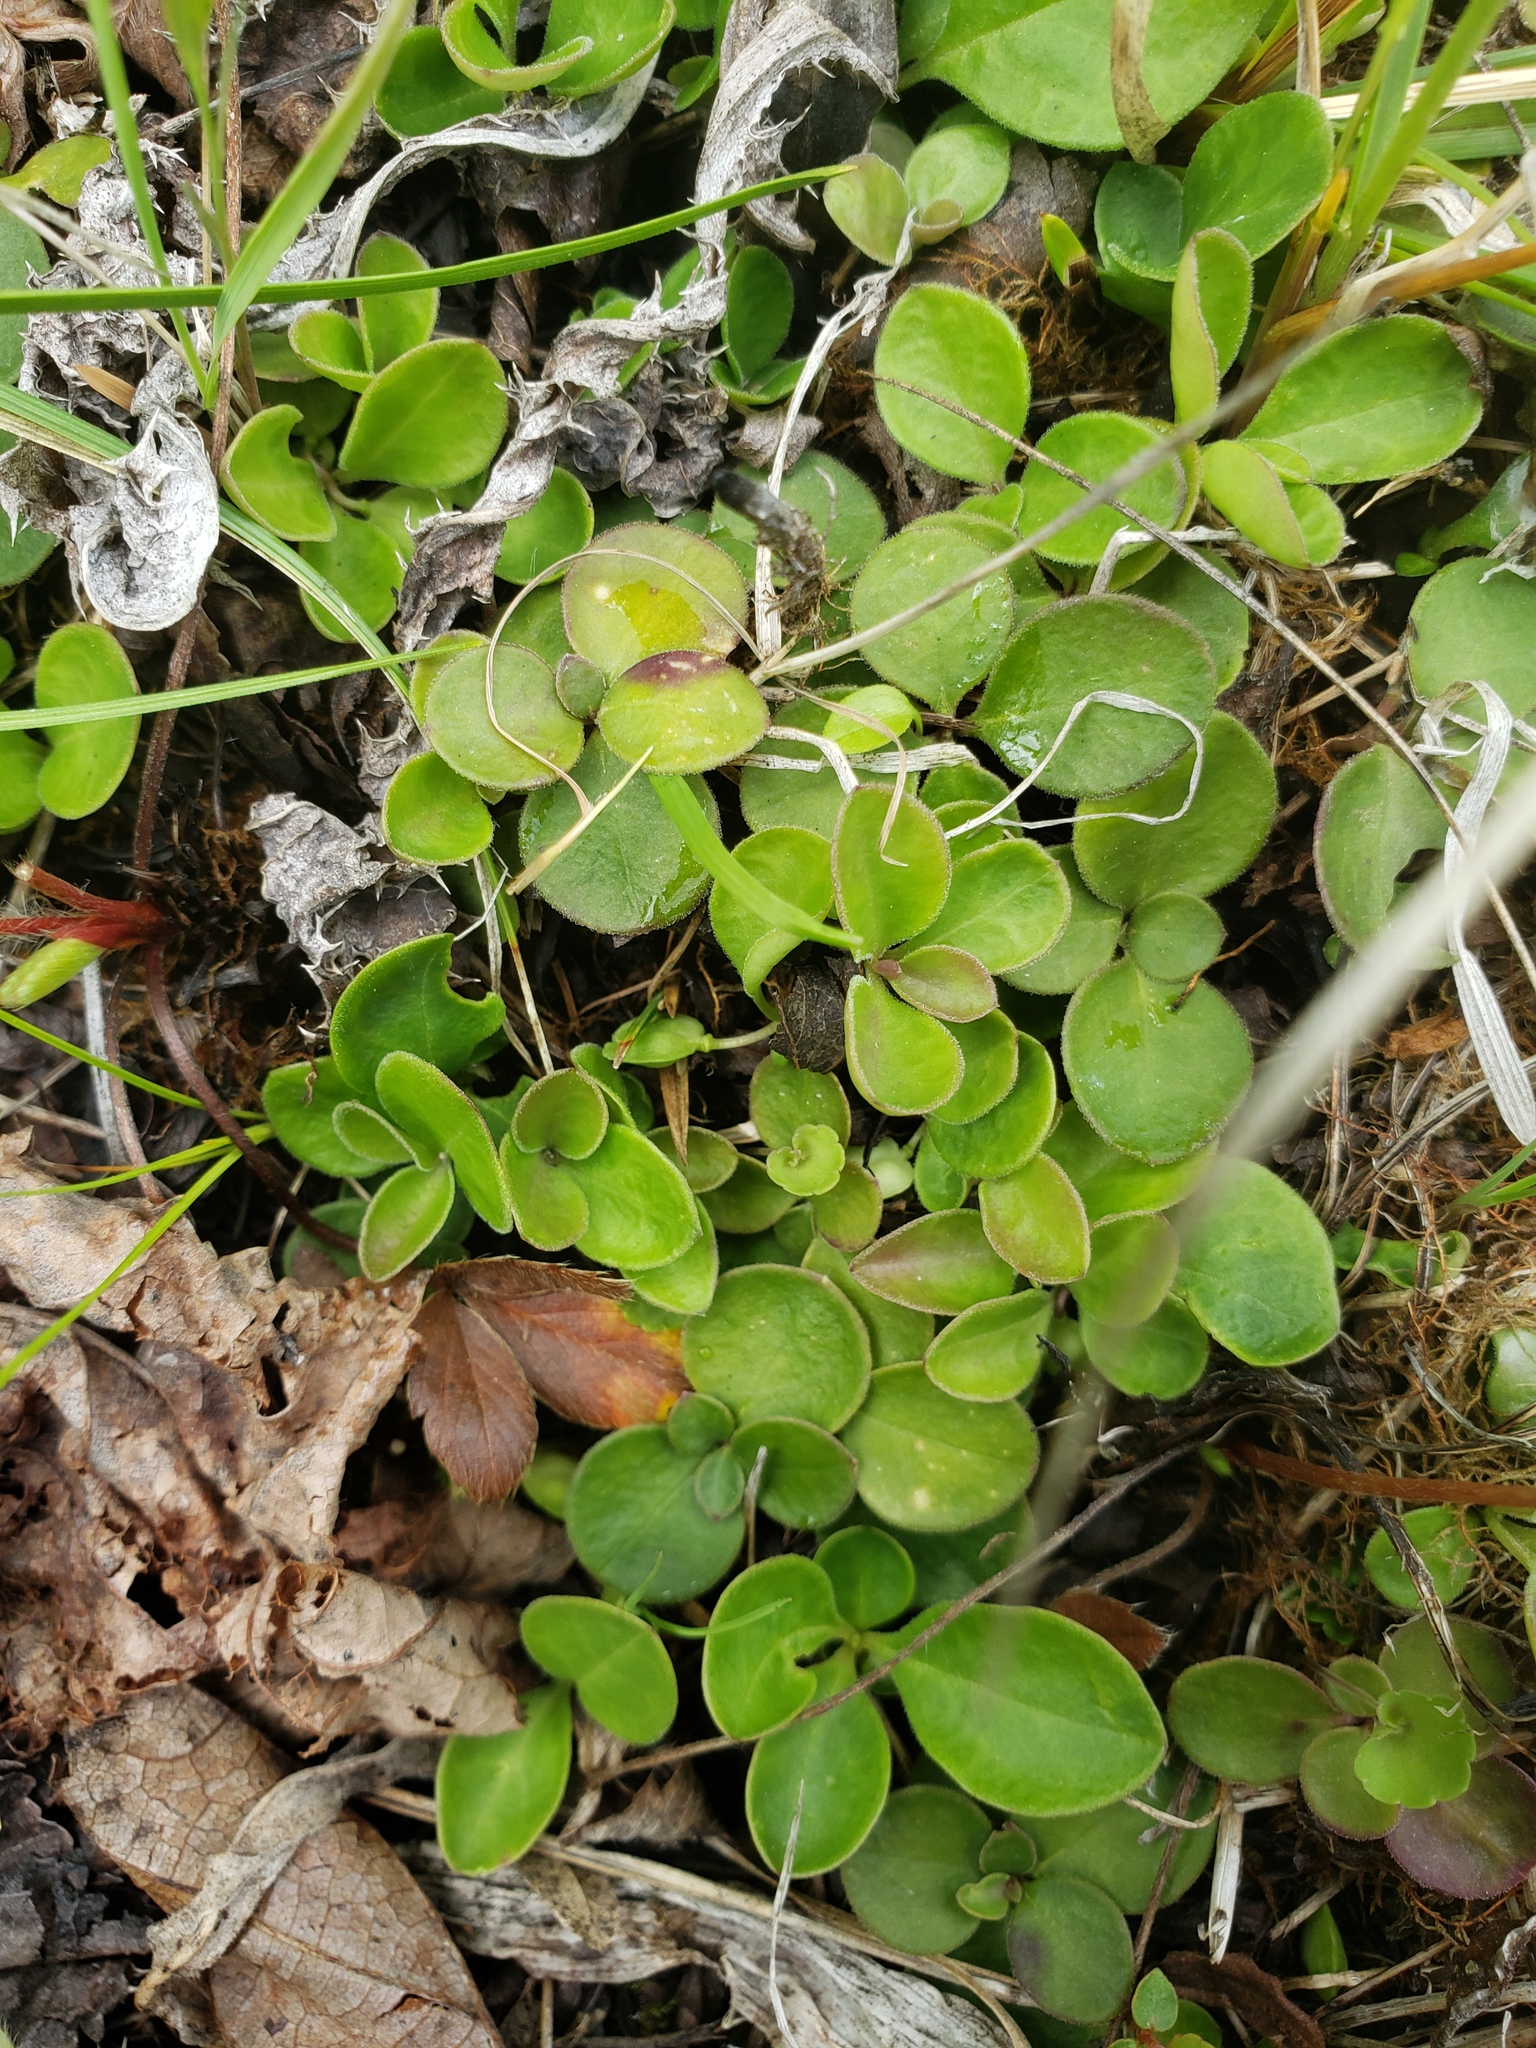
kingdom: Plantae
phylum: Tracheophyta
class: Magnoliopsida
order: Fabales
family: Polygalaceae
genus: Polygaloides
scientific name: Polygaloides paucifolia
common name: Bird-on-the-wing
